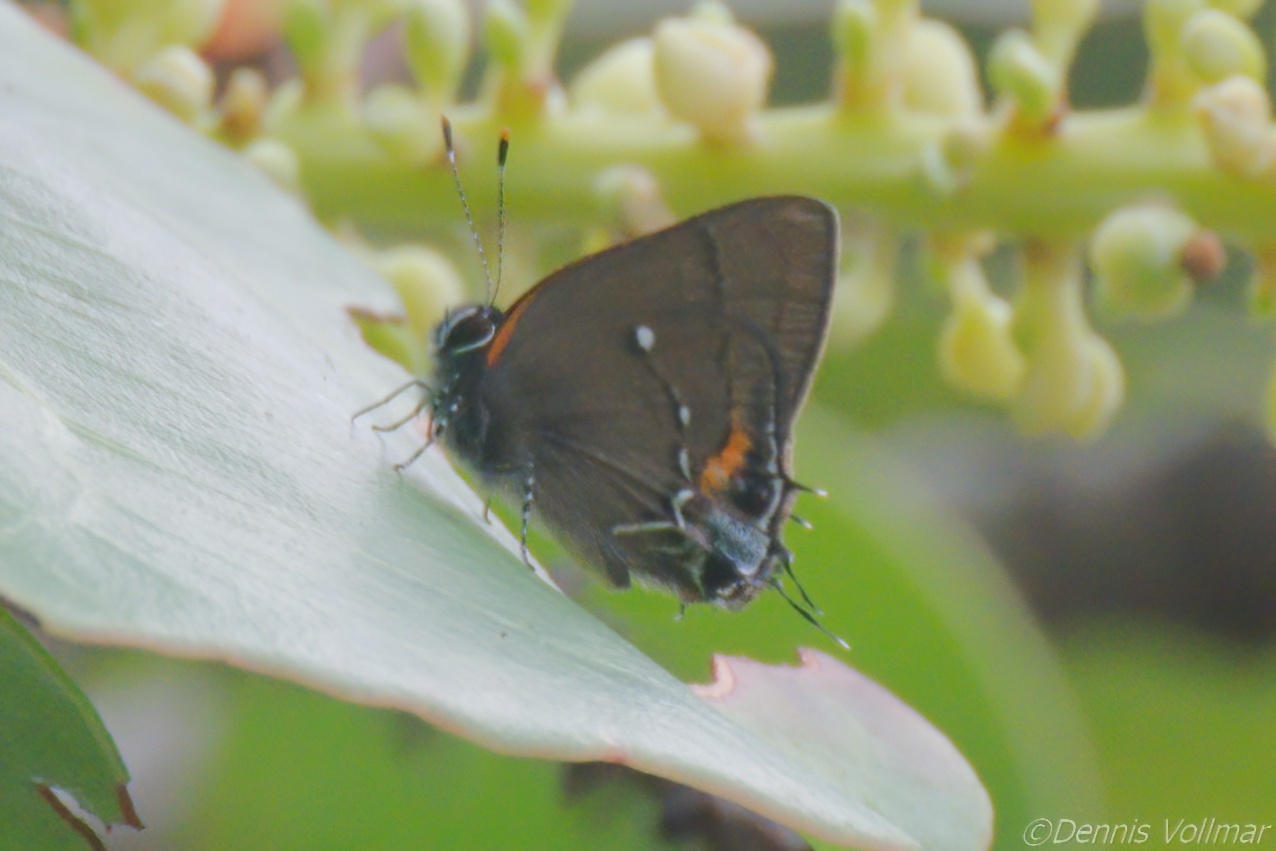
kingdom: Animalia
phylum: Arthropoda
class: Insecta
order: Lepidoptera
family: Lycaenidae
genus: Thecla
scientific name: Thecla angelia
